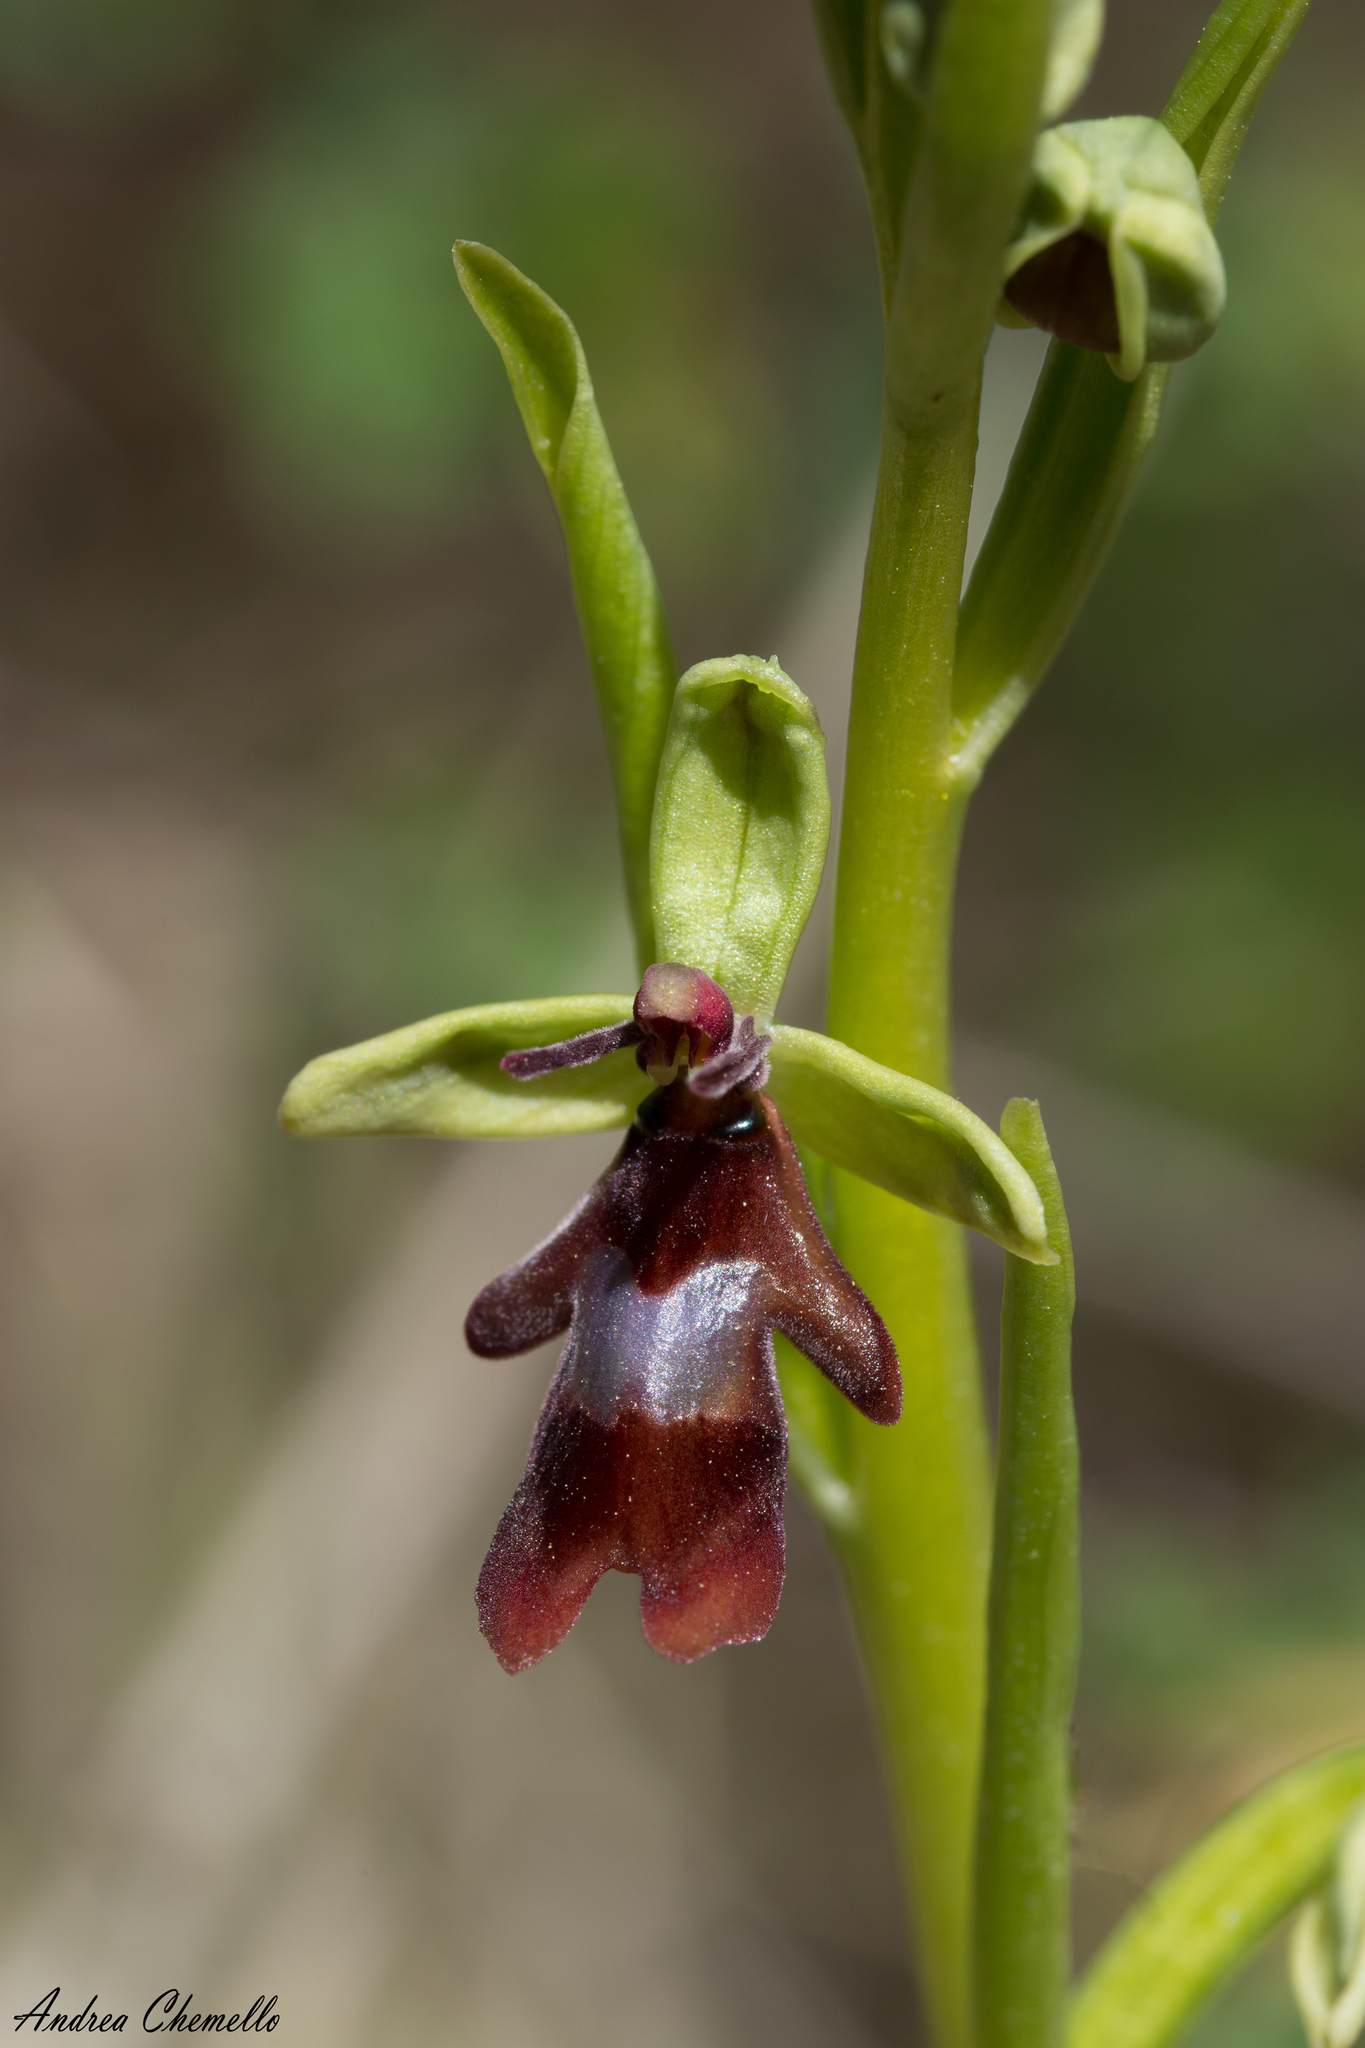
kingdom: Plantae
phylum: Tracheophyta
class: Liliopsida
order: Asparagales
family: Orchidaceae
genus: Ophrys
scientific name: Ophrys insectifera
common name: Fly orchid
